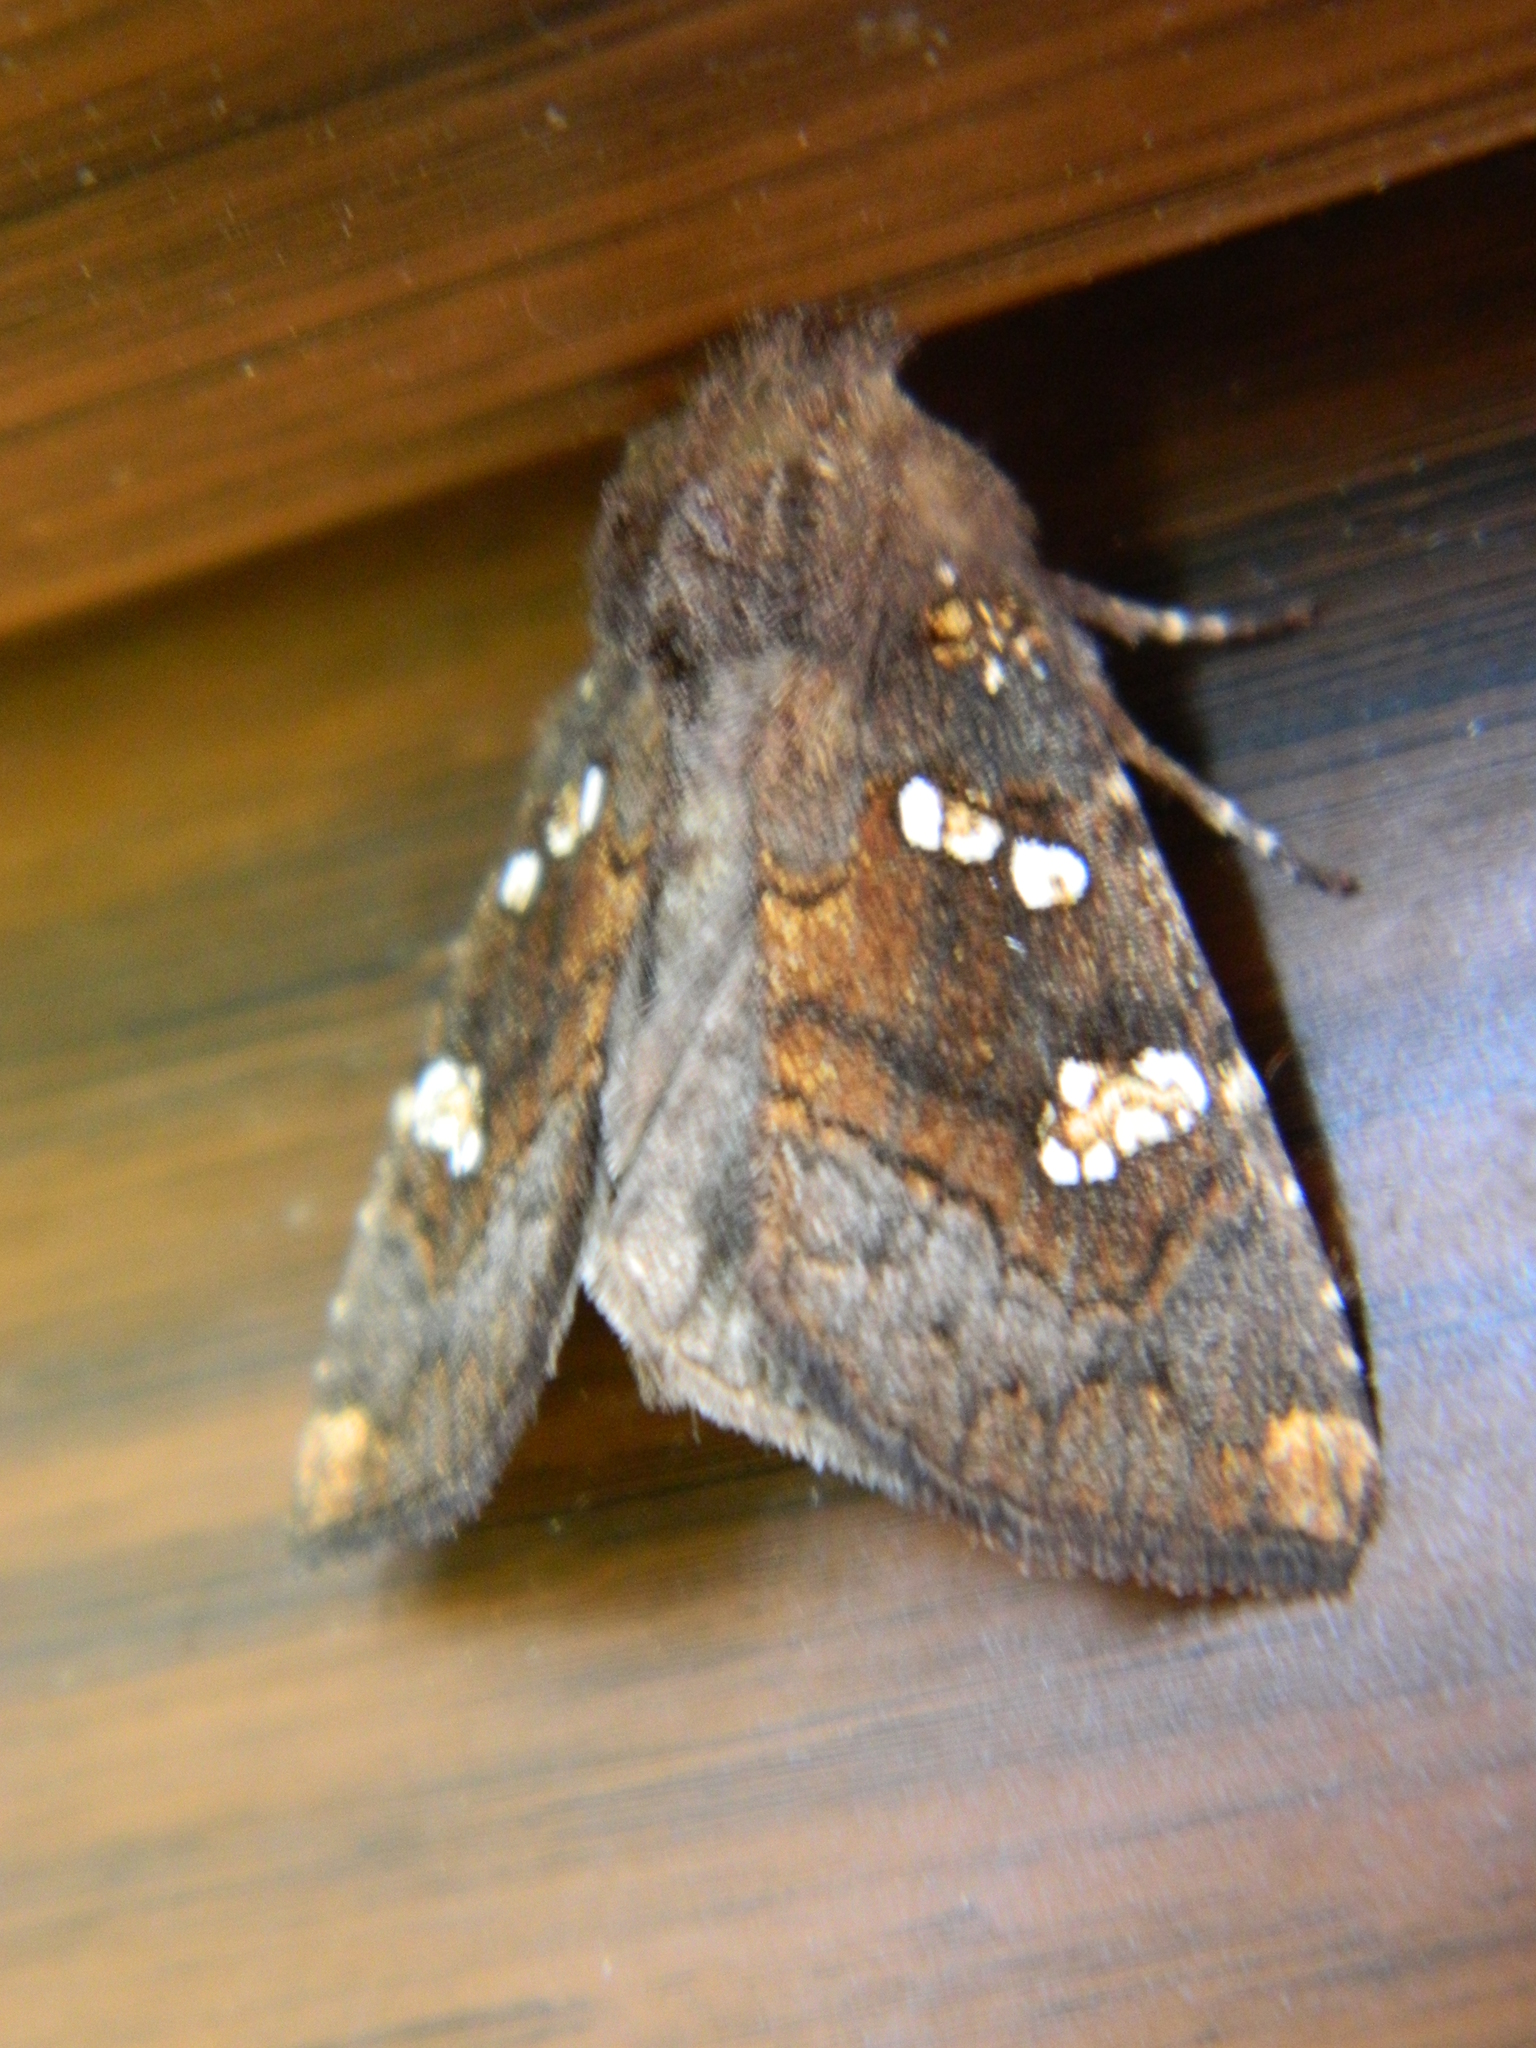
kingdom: Animalia
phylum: Arthropoda
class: Insecta
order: Lepidoptera
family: Noctuidae
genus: Papaipema
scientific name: Papaipema unimoda
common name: Meadow rue borer moth
